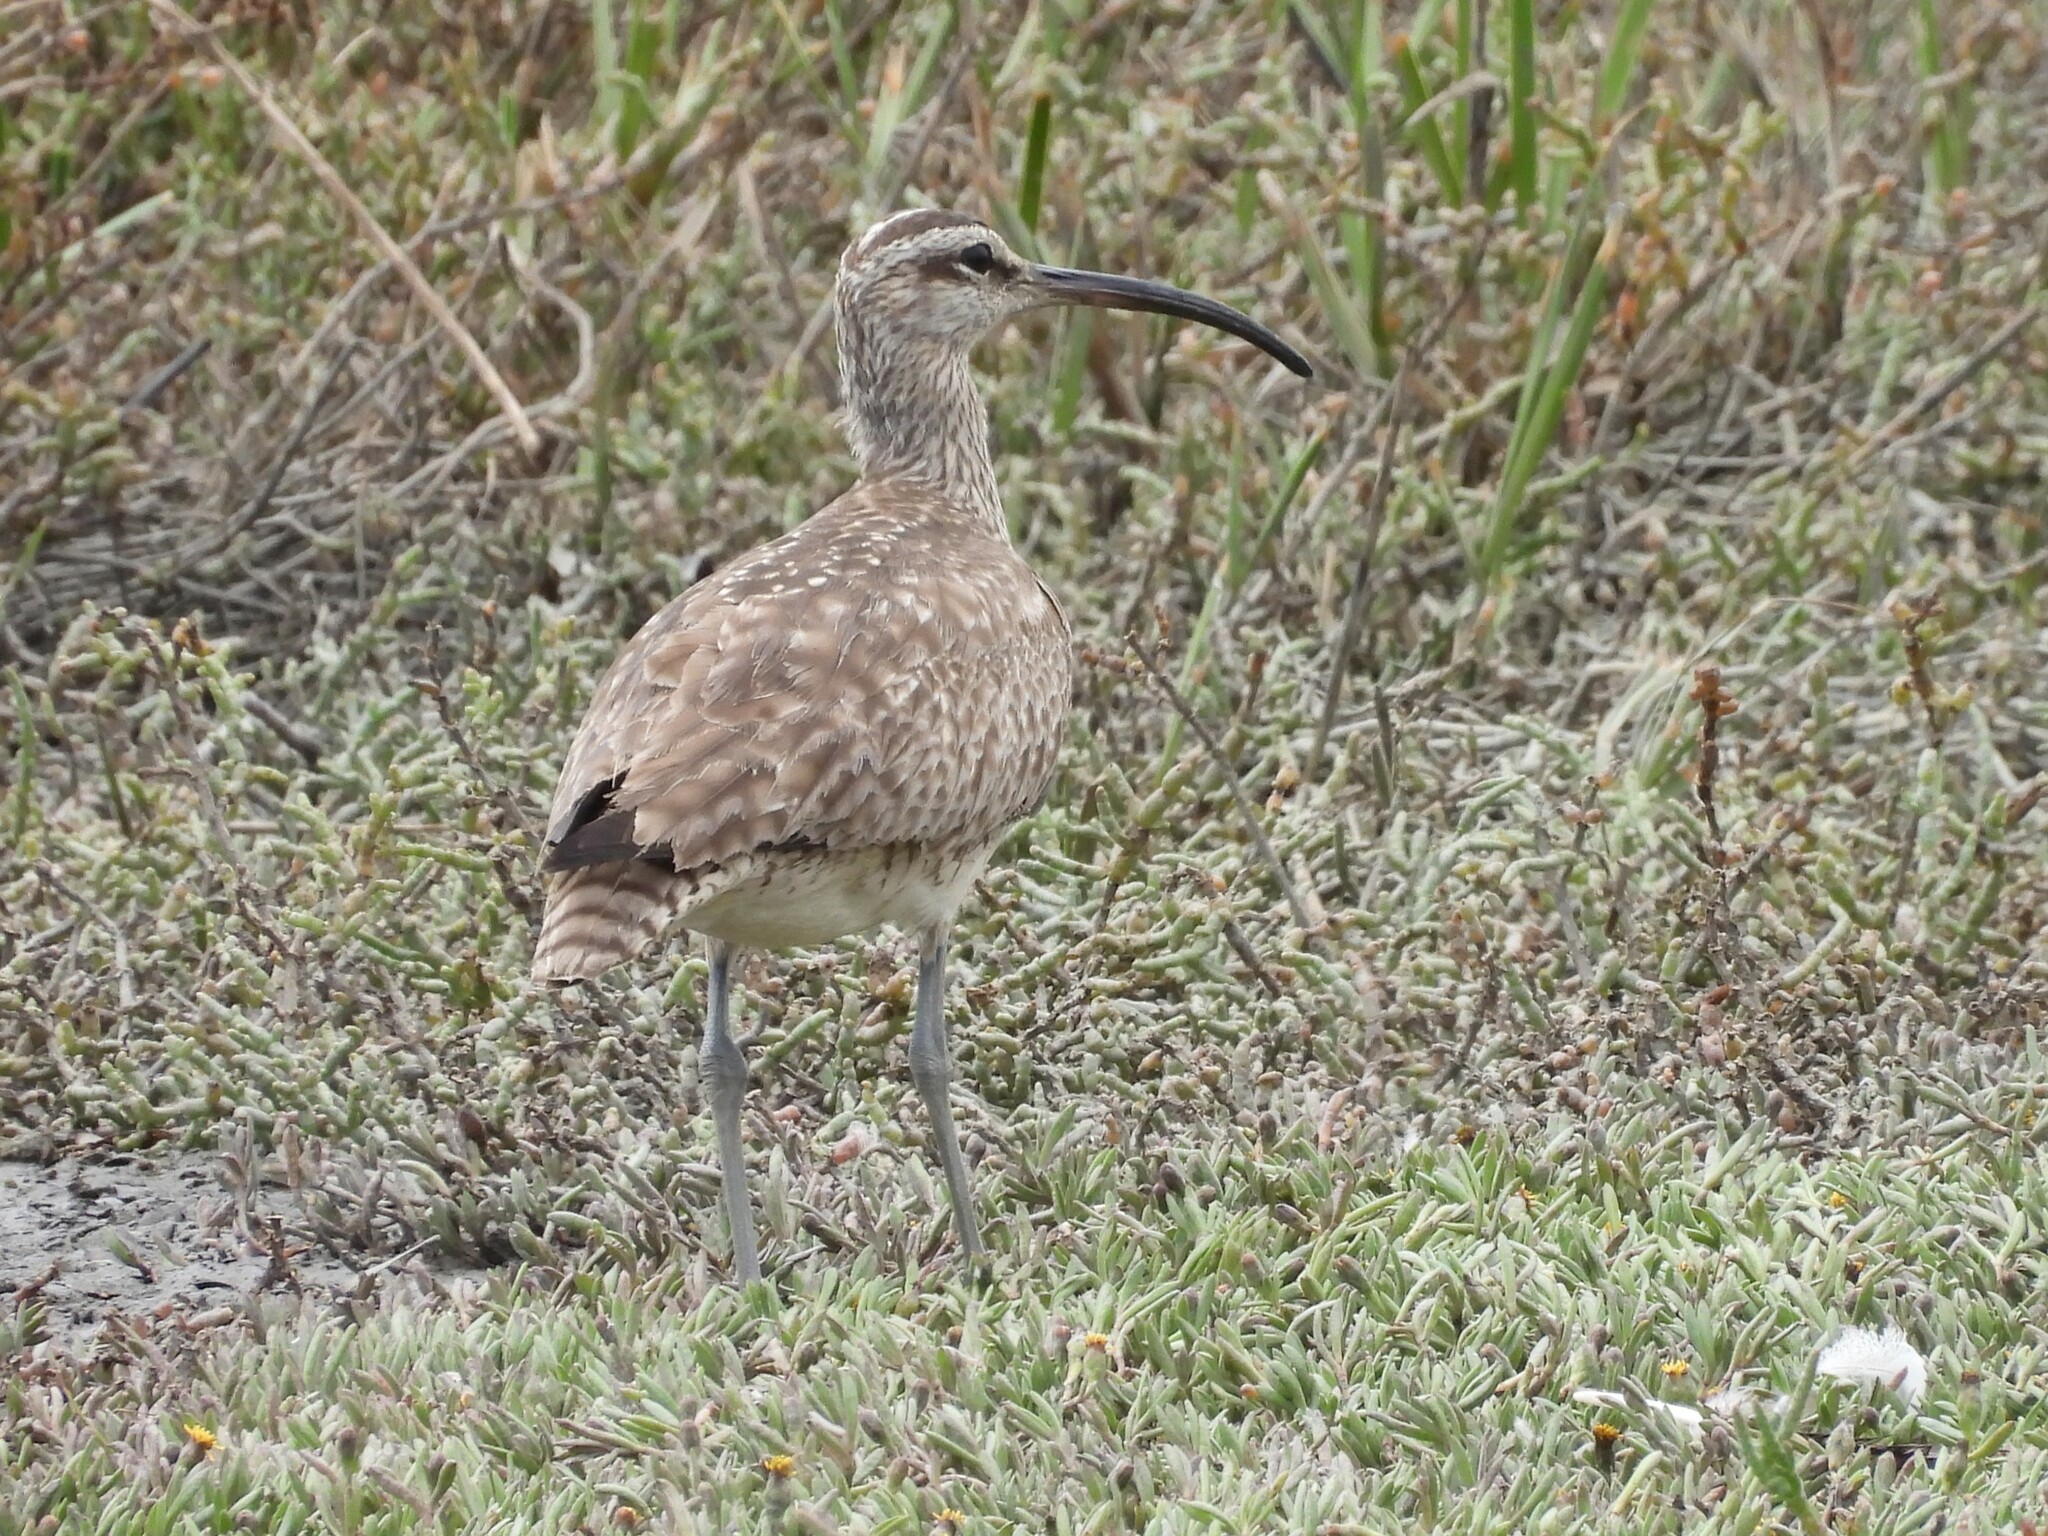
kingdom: Animalia
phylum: Chordata
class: Aves
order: Charadriiformes
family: Scolopacidae
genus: Numenius
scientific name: Numenius phaeopus
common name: Whimbrel
